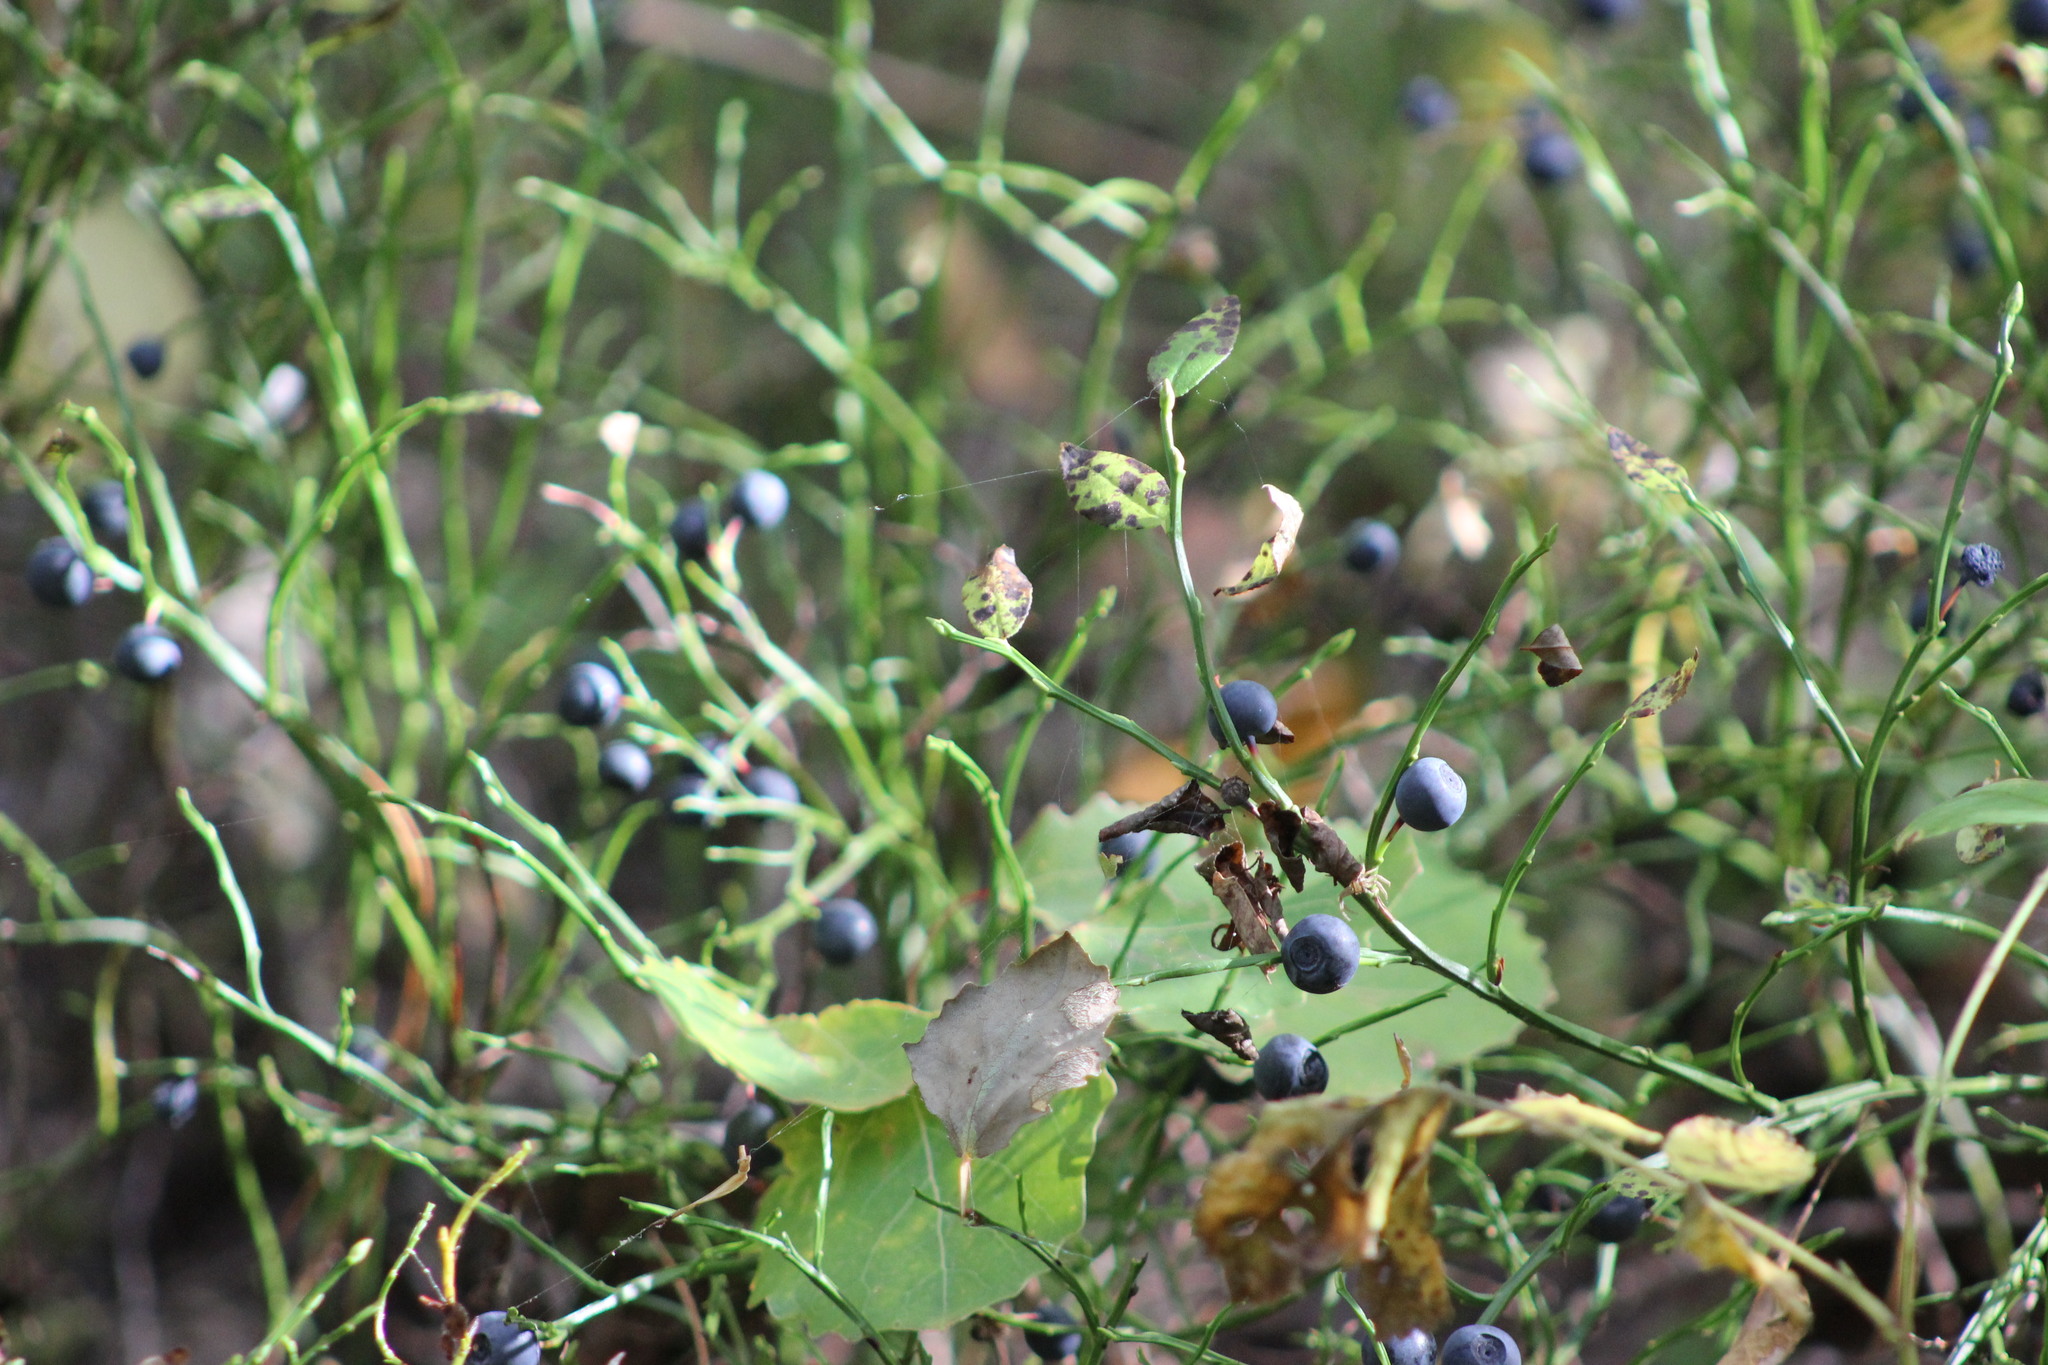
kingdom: Plantae
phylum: Tracheophyta
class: Magnoliopsida
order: Ericales
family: Ericaceae
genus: Vaccinium
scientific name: Vaccinium myrtillus
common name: Bilberry
